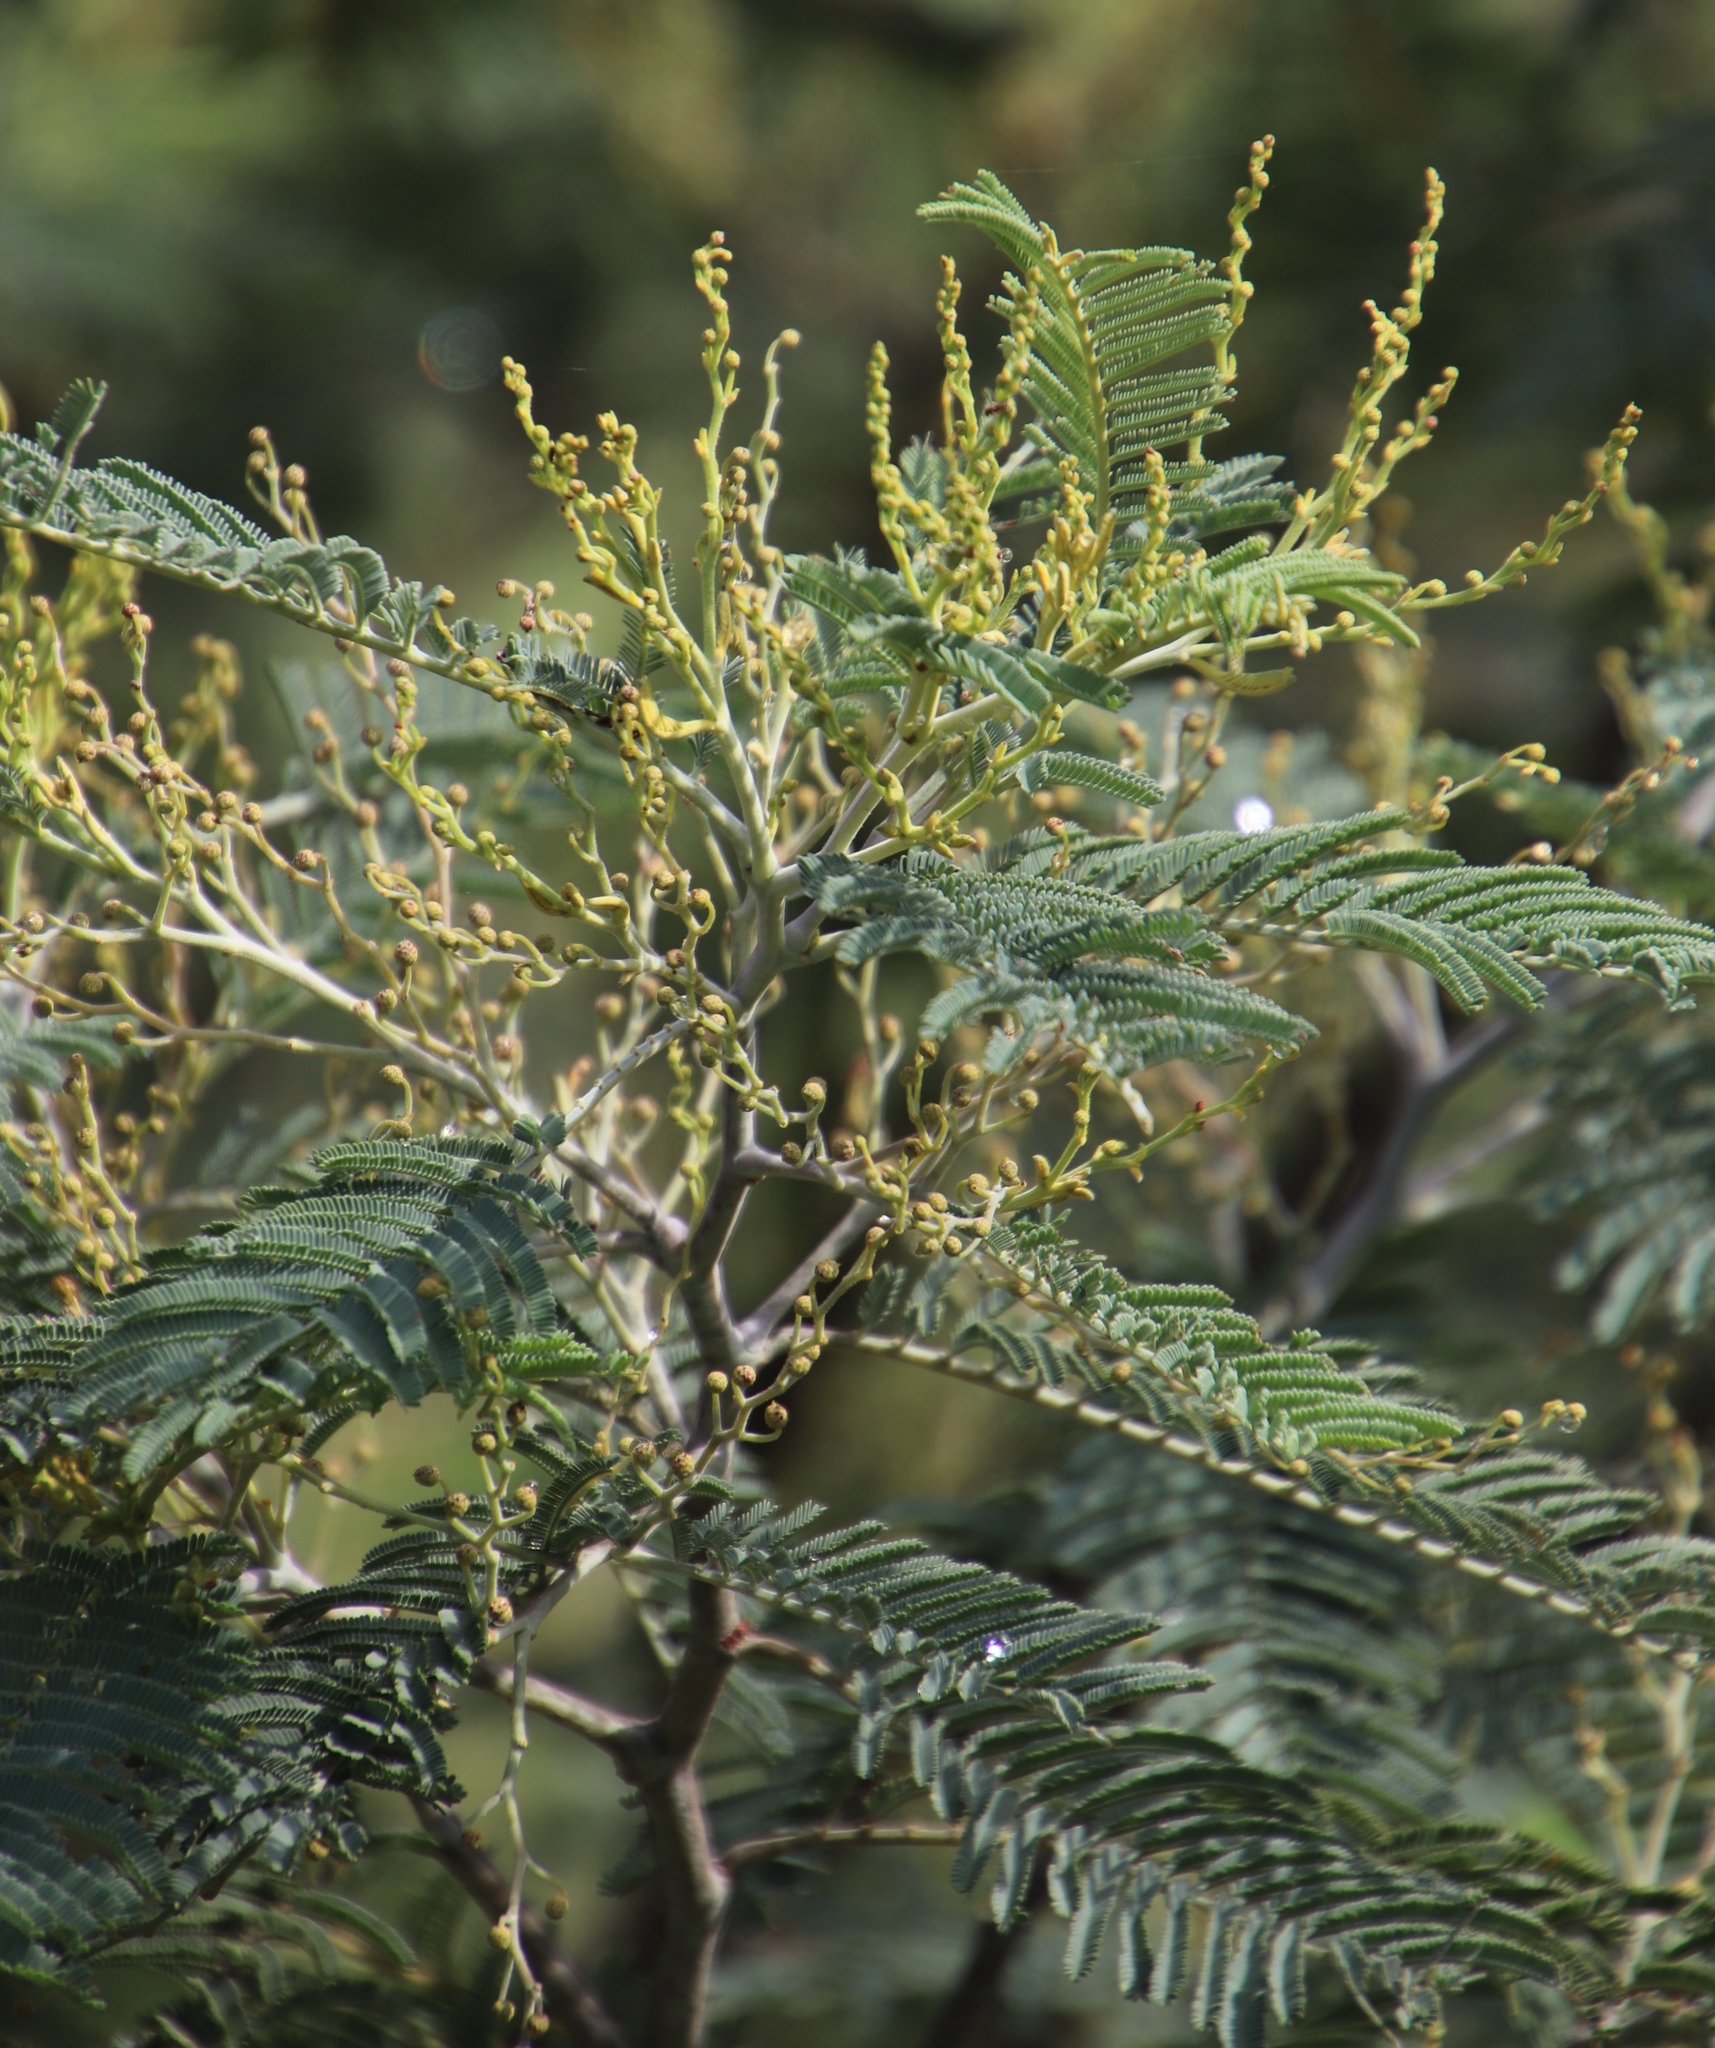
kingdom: Plantae
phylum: Tracheophyta
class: Magnoliopsida
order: Fabales
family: Fabaceae
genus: Acacia
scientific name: Acacia dealbata
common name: Silver wattle
